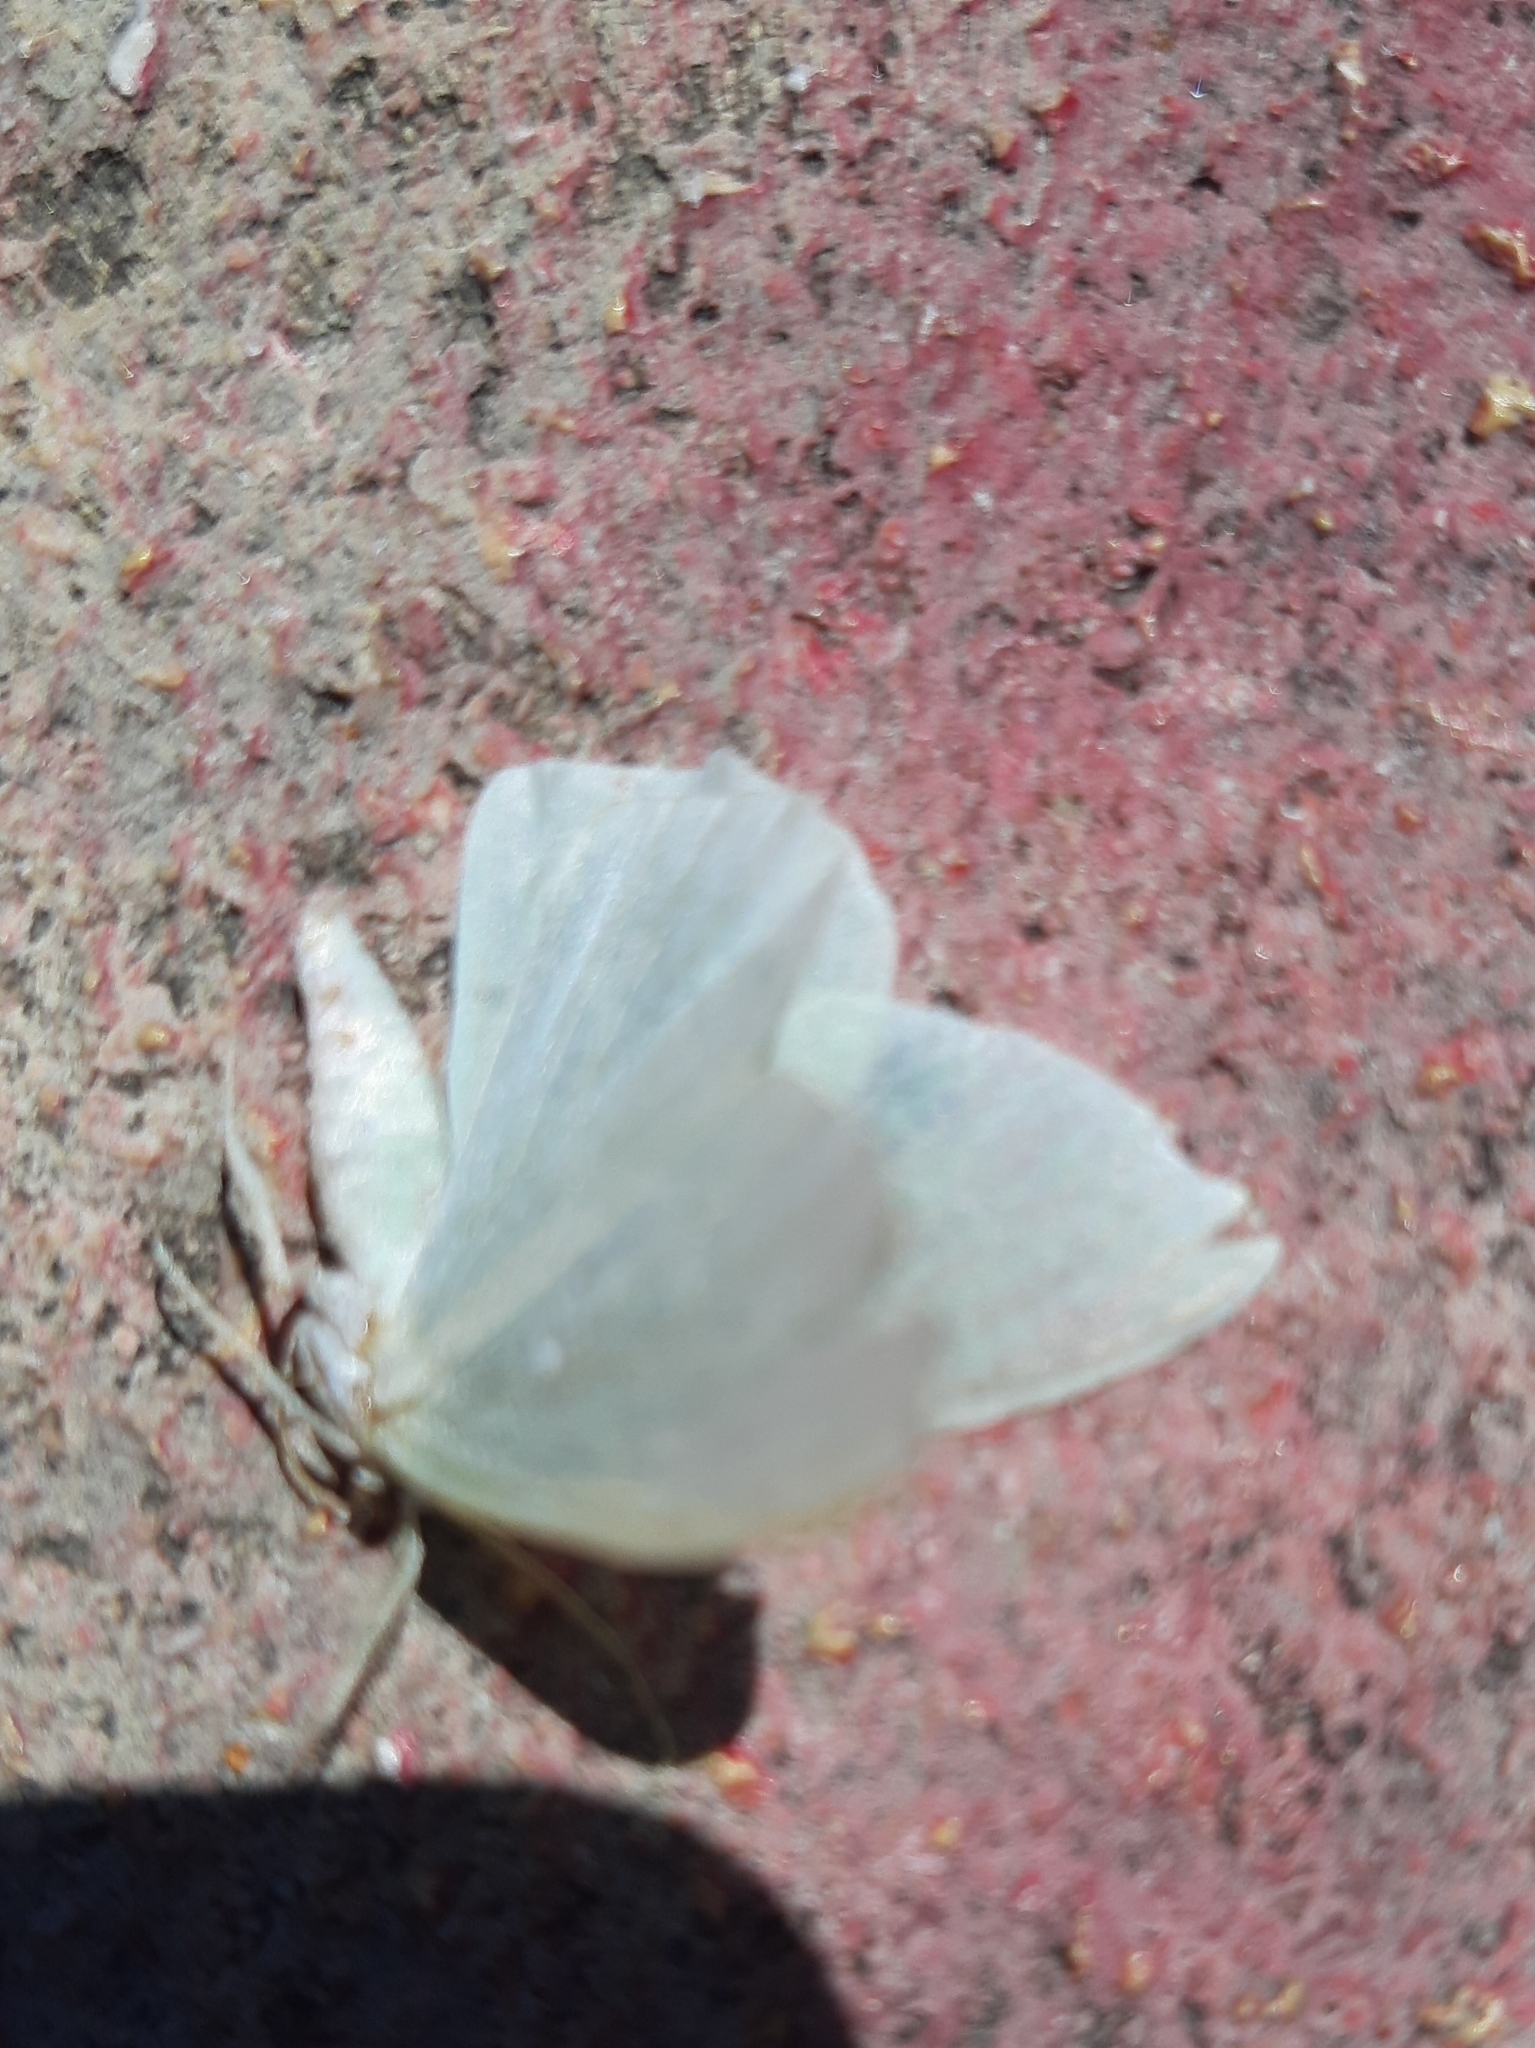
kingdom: Animalia
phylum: Arthropoda
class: Insecta
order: Lepidoptera
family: Geometridae
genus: Hemistola
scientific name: Hemistola chrysoprasaria
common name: Small emerald
